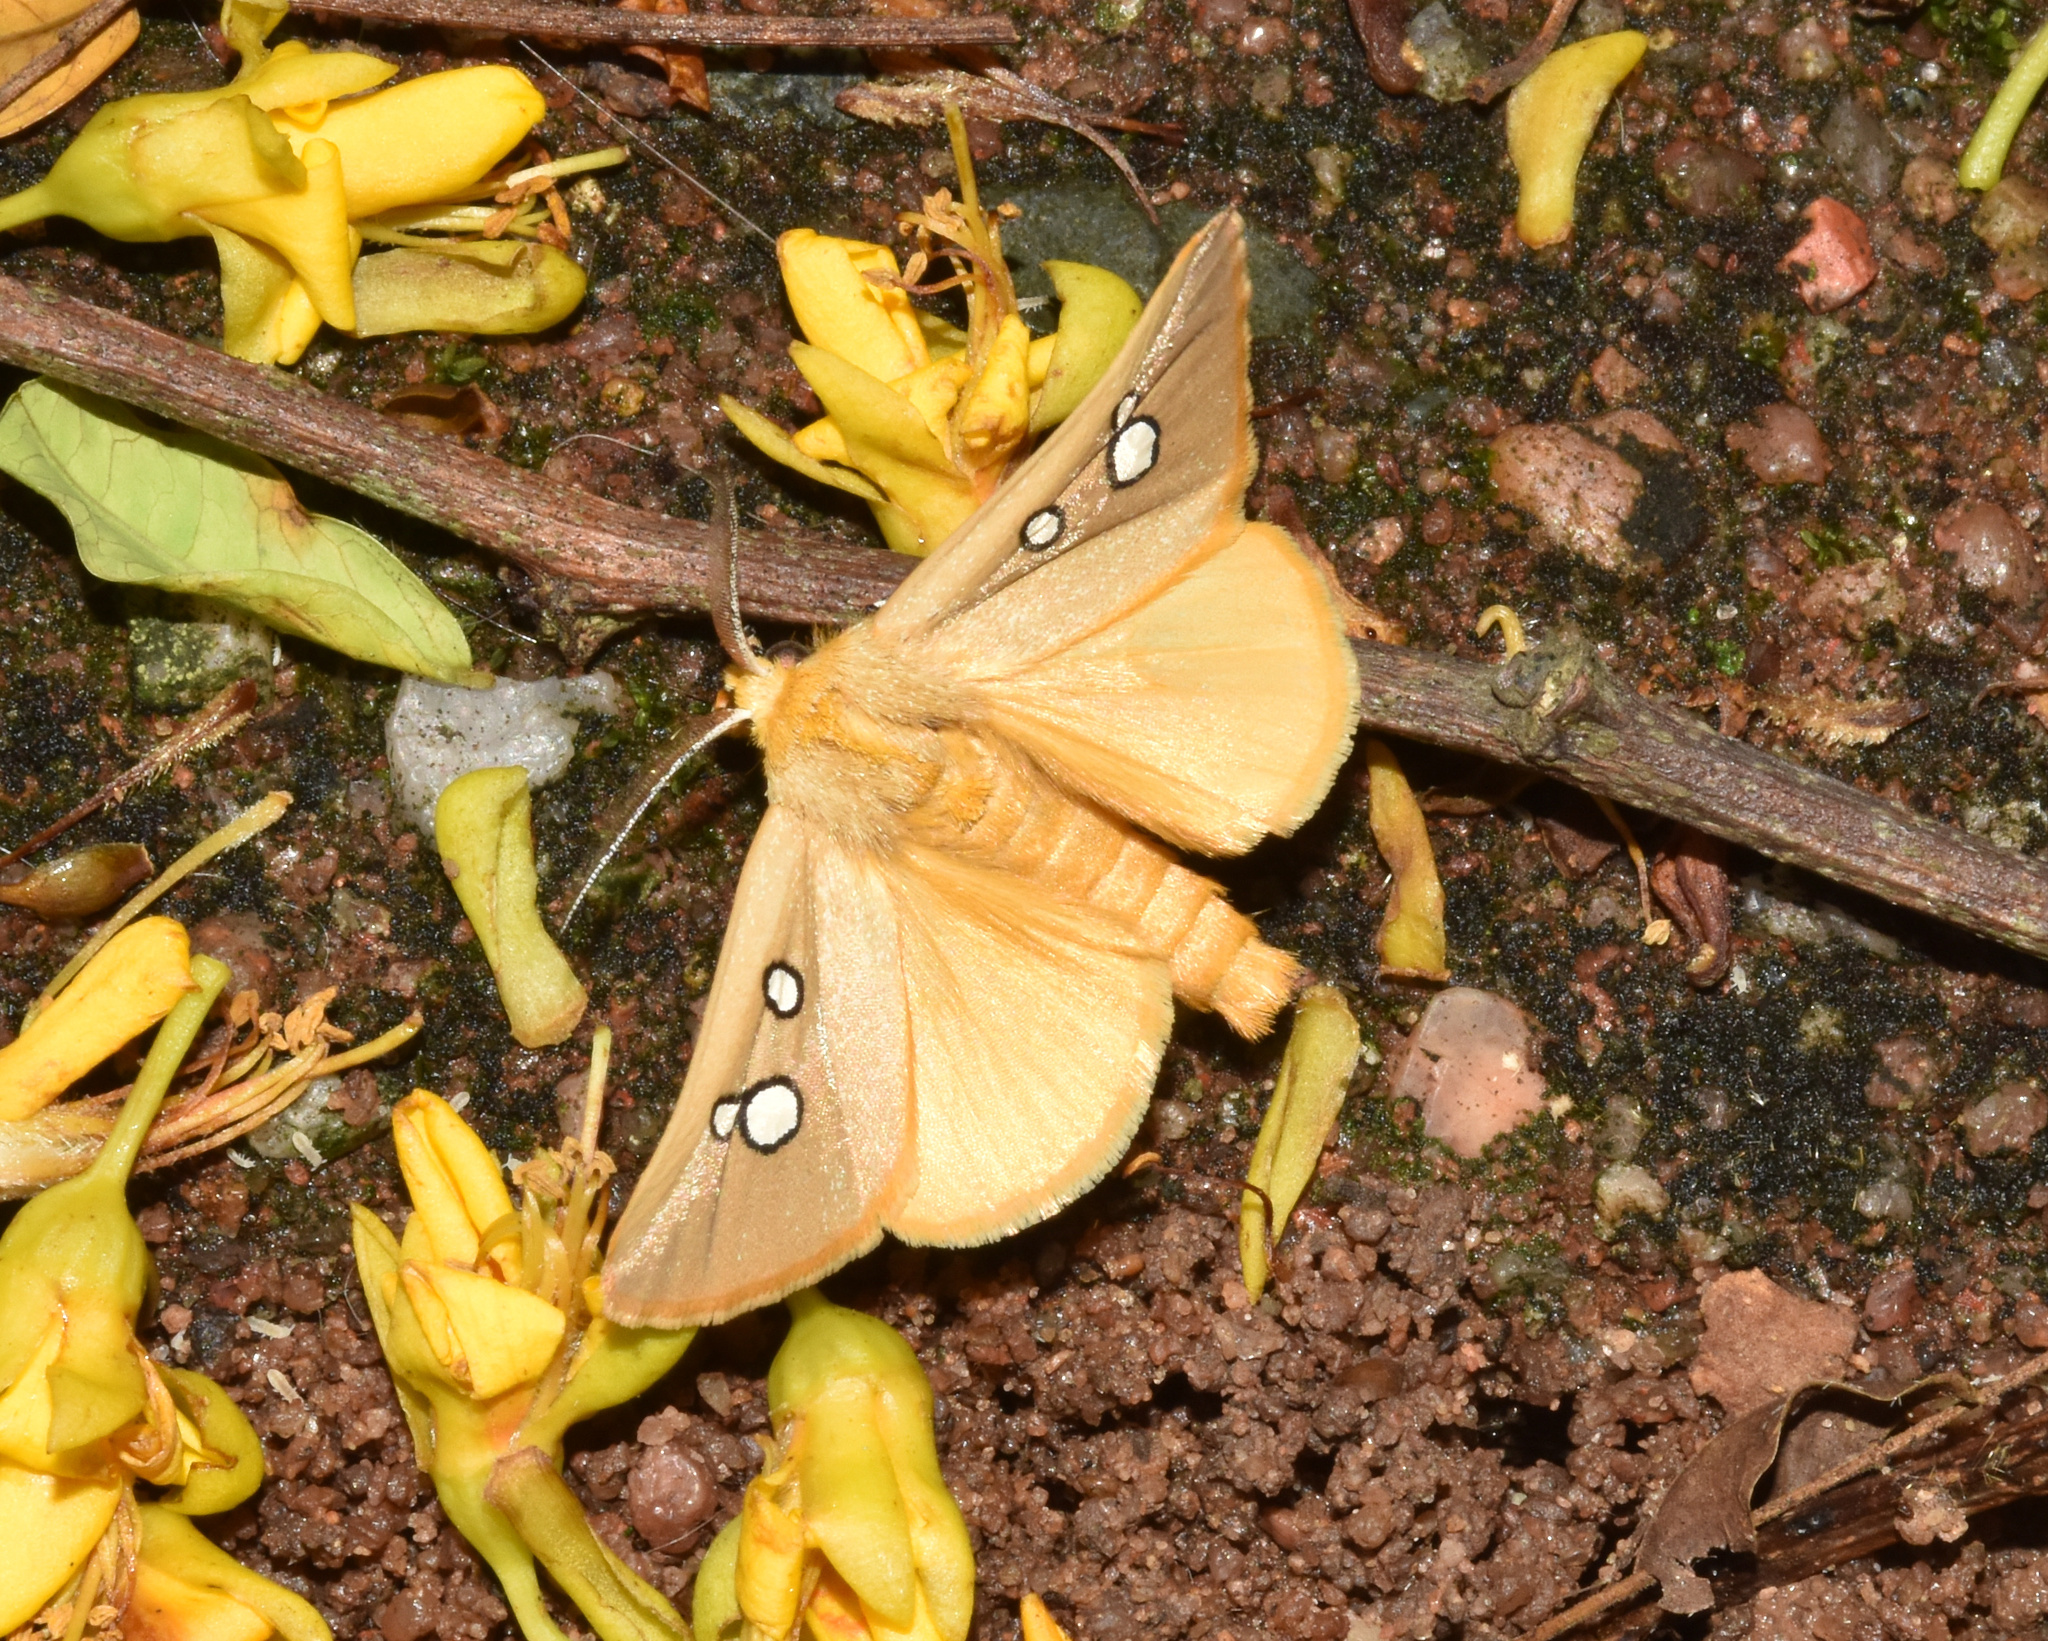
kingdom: Animalia
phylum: Arthropoda
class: Insecta
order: Lepidoptera
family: Erebidae
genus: Rhanidophora
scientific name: Rhanidophora phedonia
